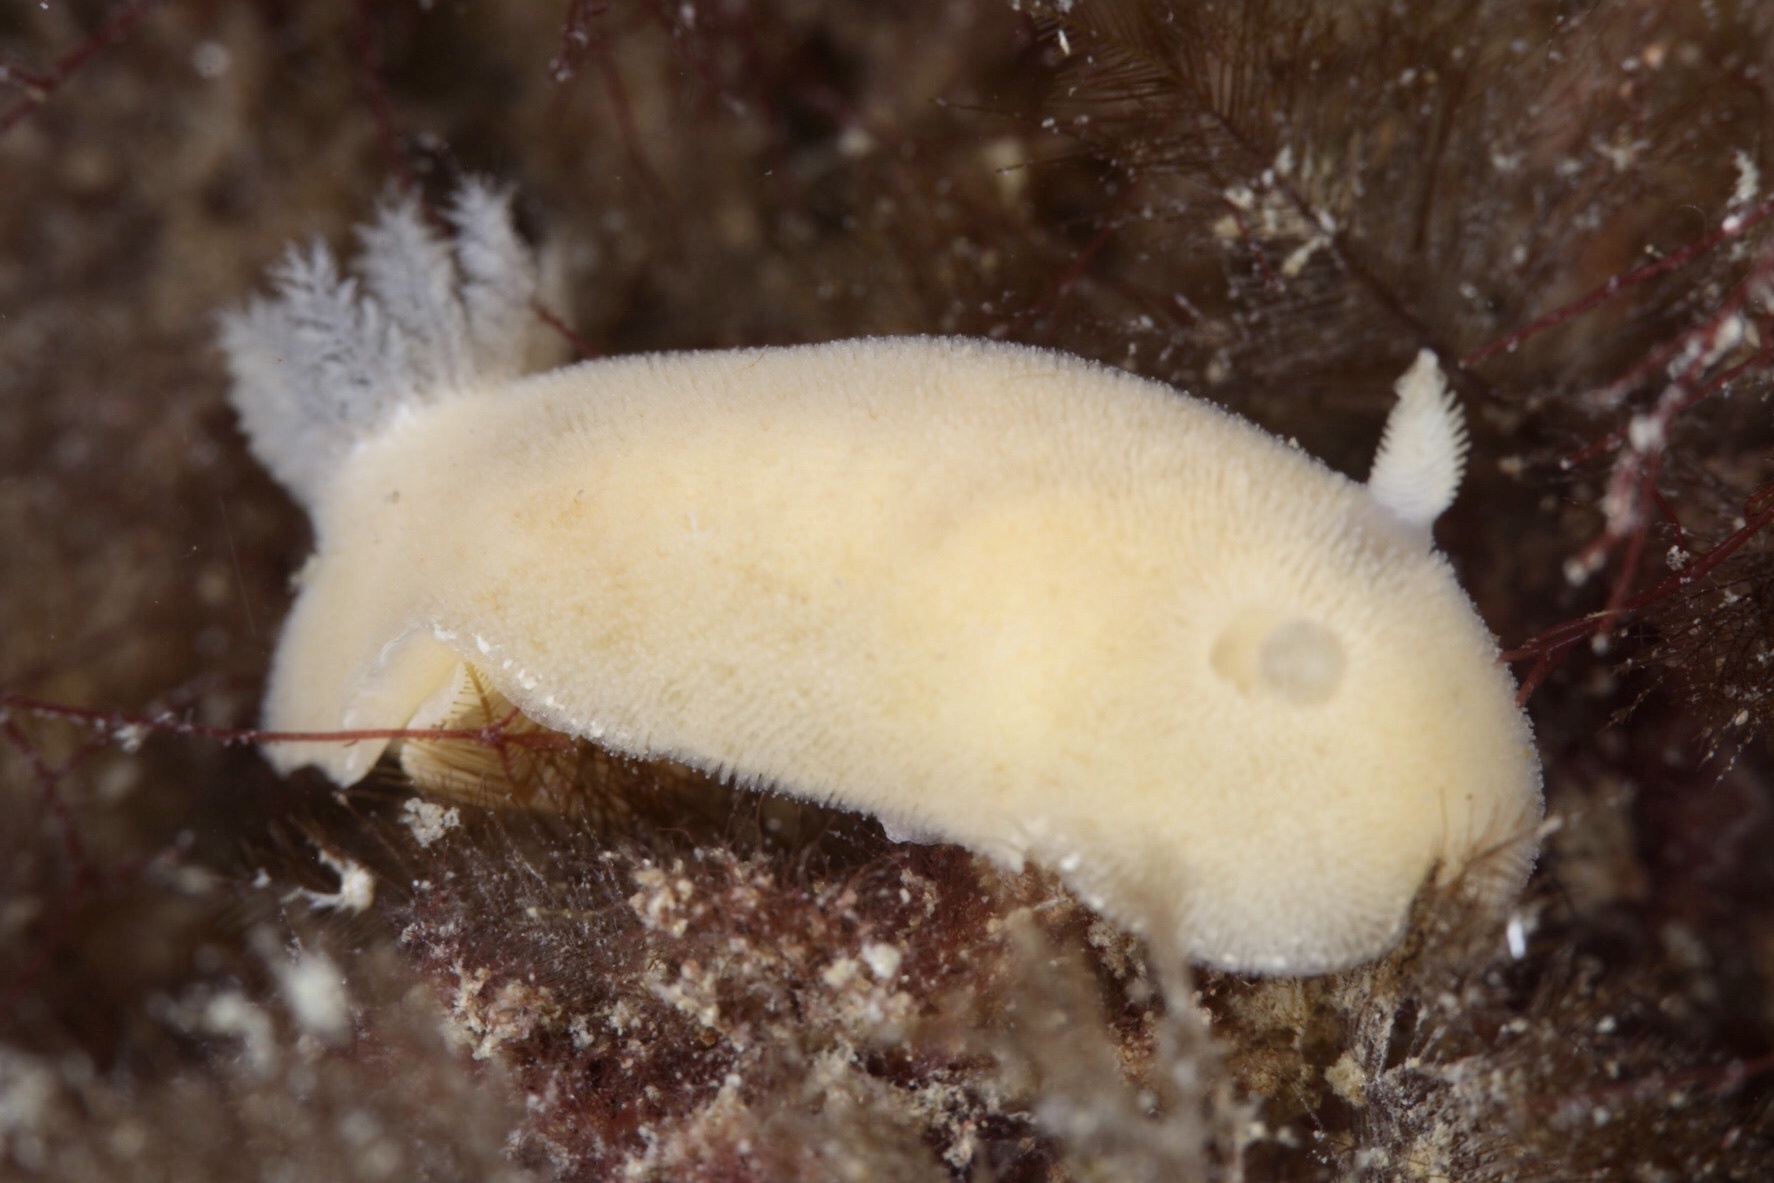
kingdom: Animalia
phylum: Mollusca
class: Gastropoda
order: Nudibranchia
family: Discodorididae
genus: Jorunna
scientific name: Jorunna tomentosa
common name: Grey sea slug
